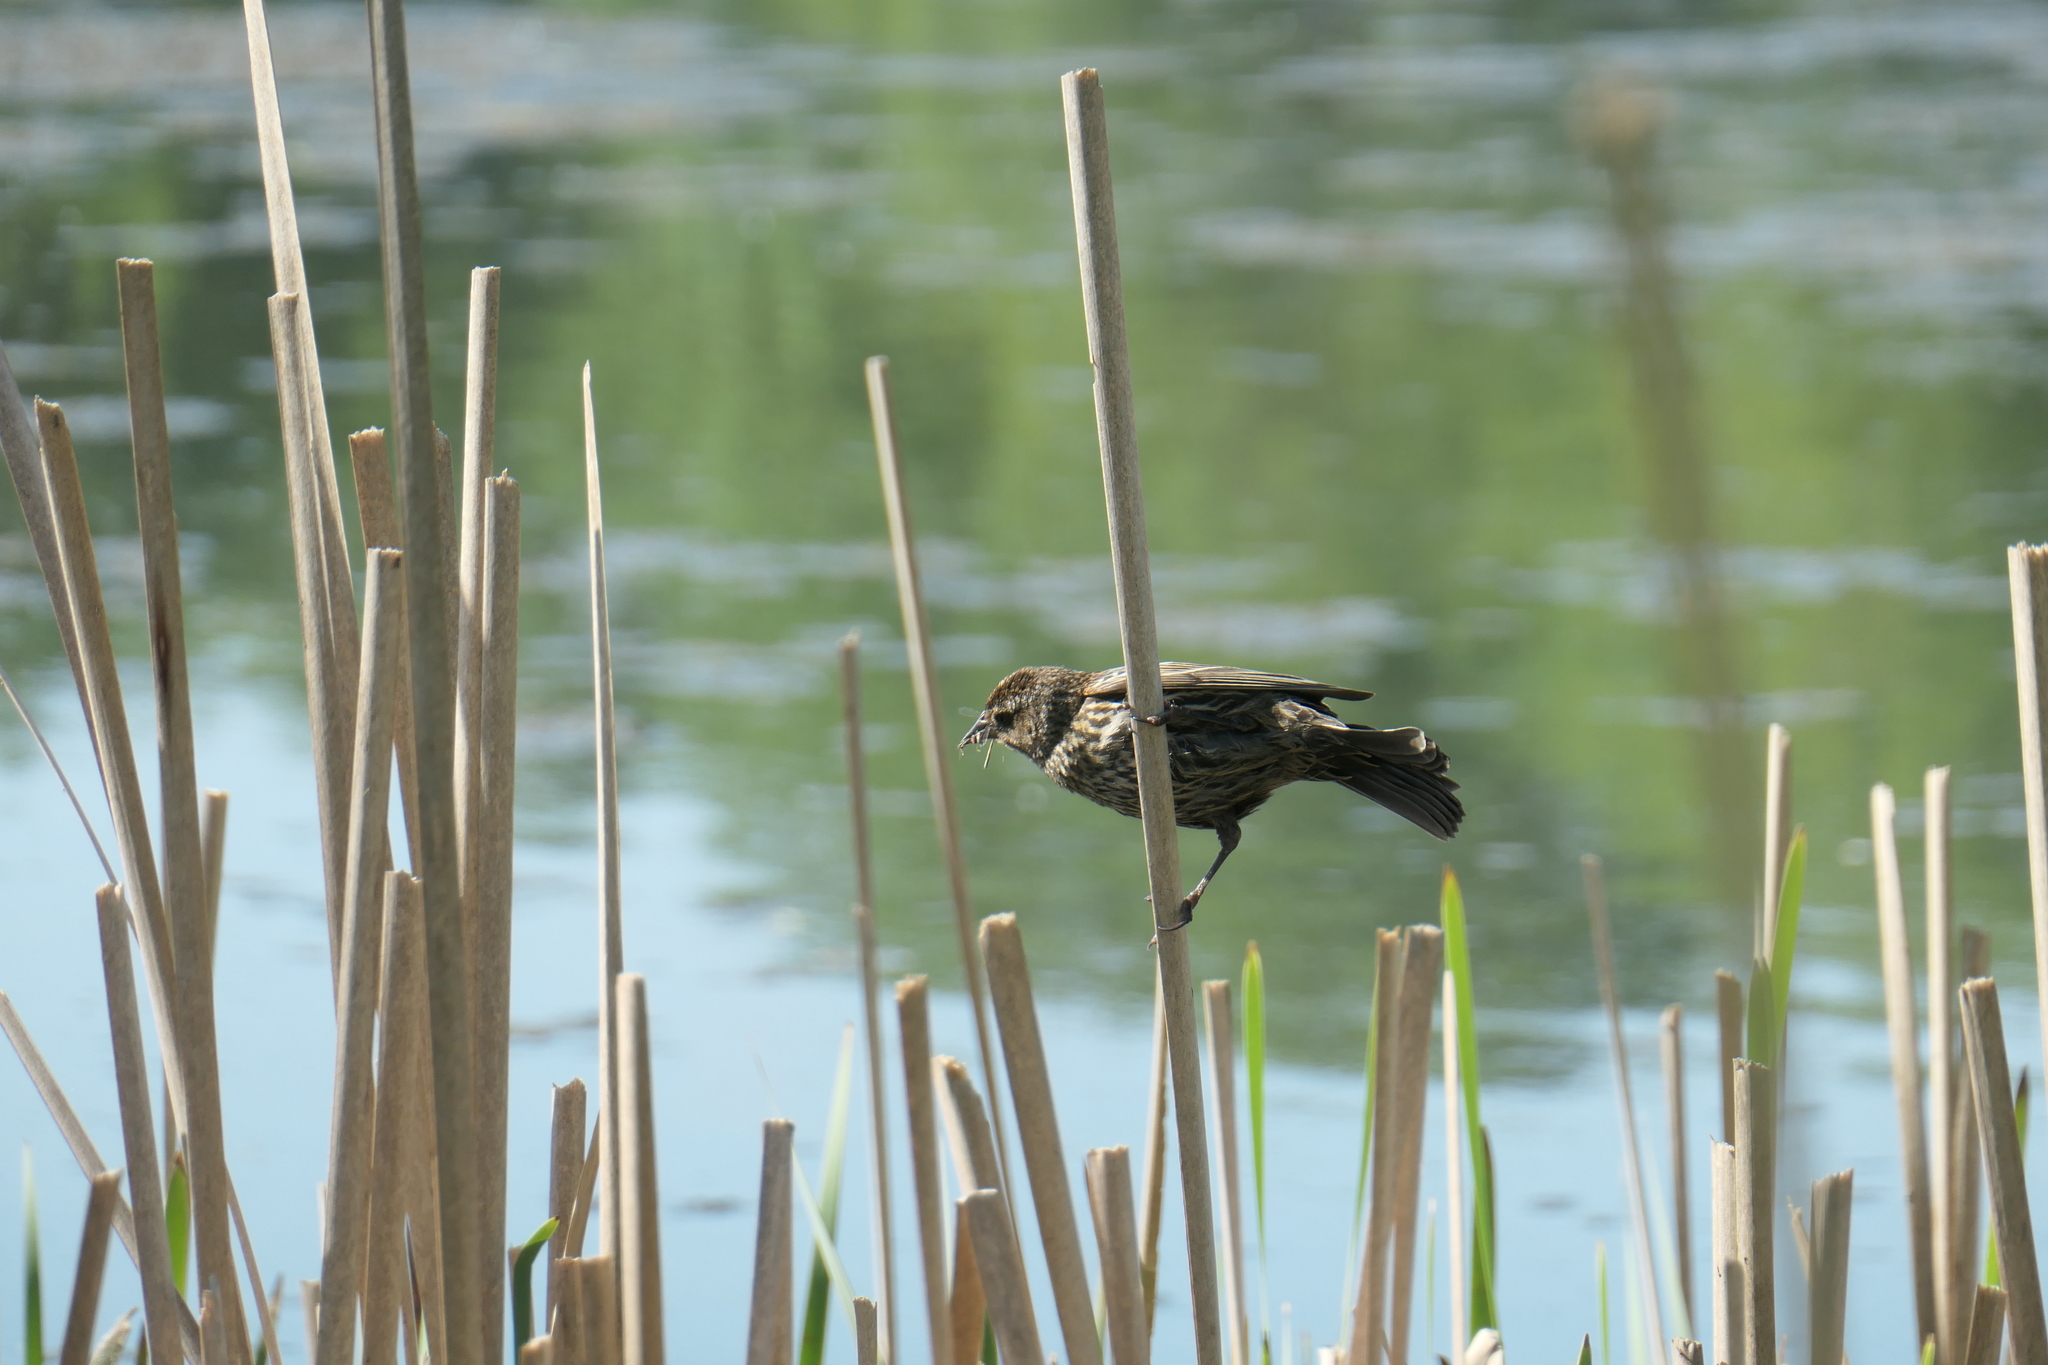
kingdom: Animalia
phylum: Chordata
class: Aves
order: Passeriformes
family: Icteridae
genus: Agelaius
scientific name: Agelaius phoeniceus
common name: Red-winged blackbird
